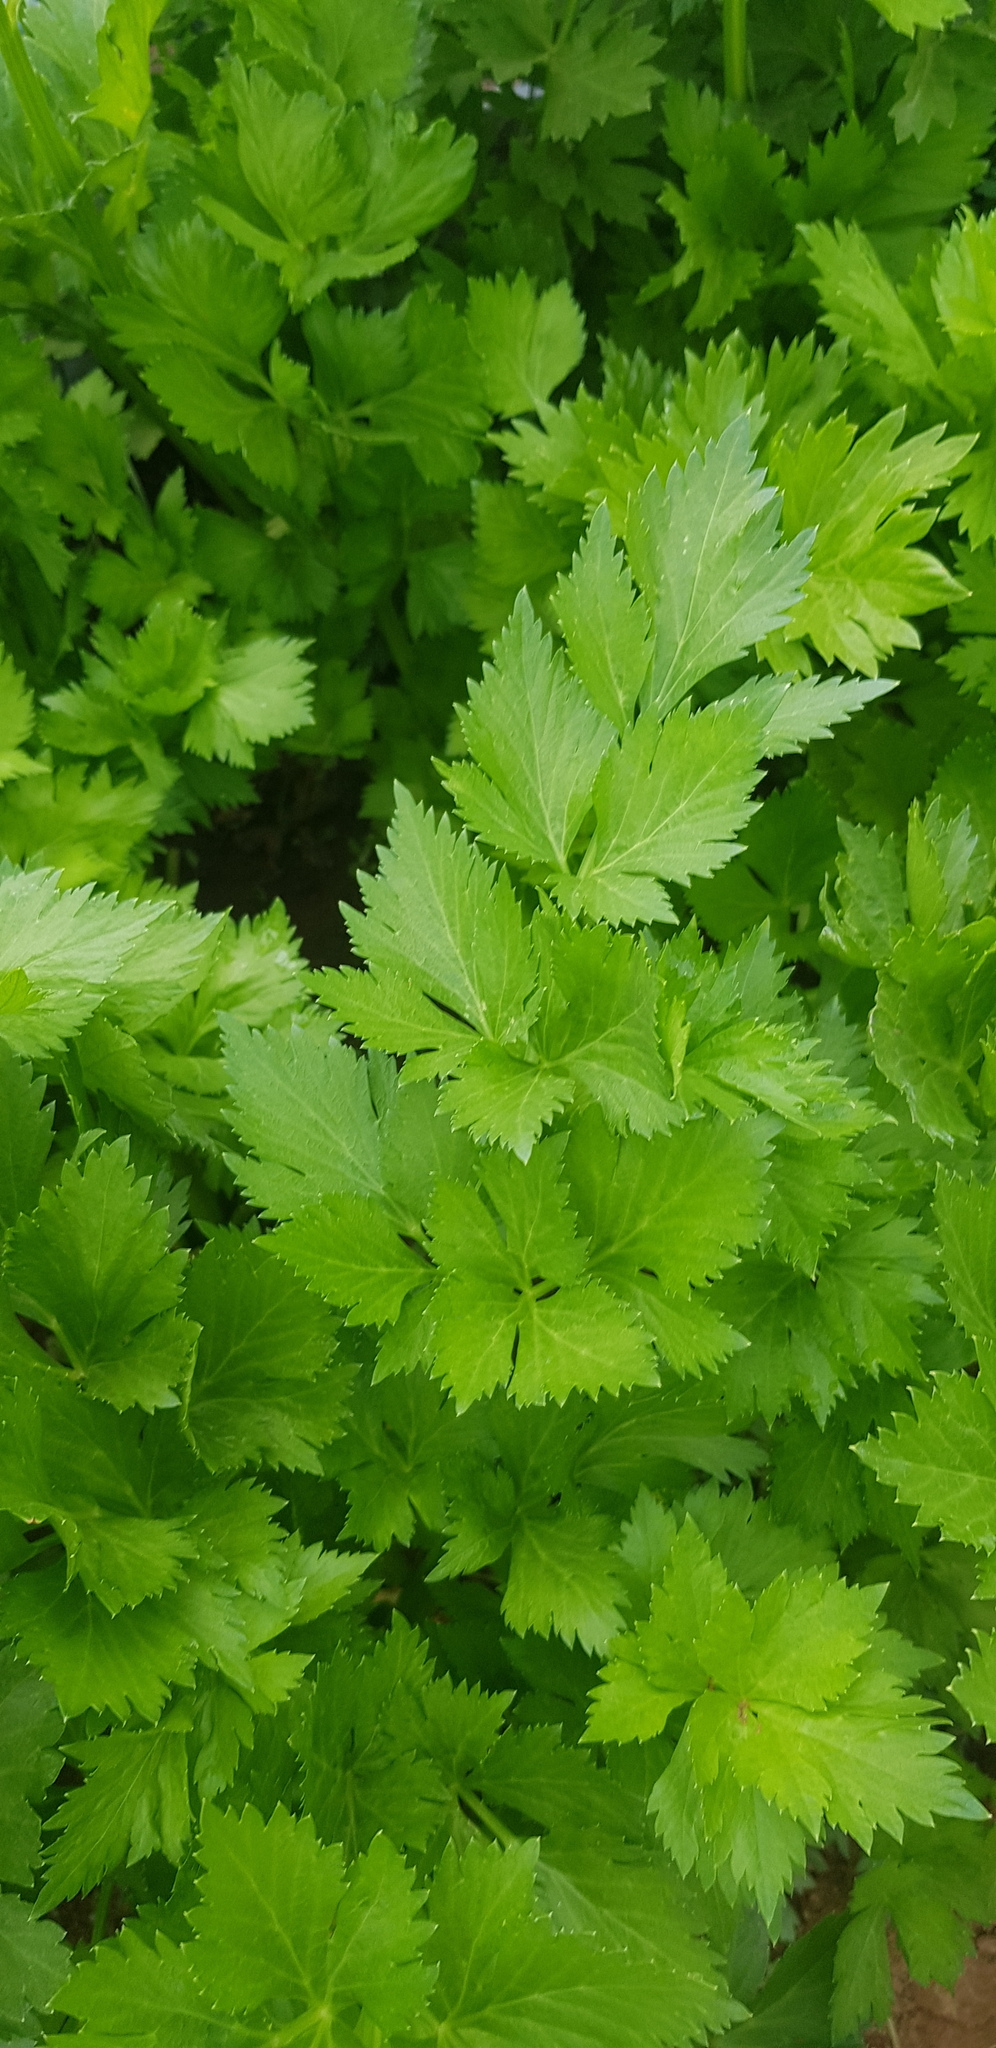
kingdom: Plantae
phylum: Tracheophyta
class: Magnoliopsida
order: Apiales
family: Apiaceae
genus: Apium
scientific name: Apium graveolens
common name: Wild celery
